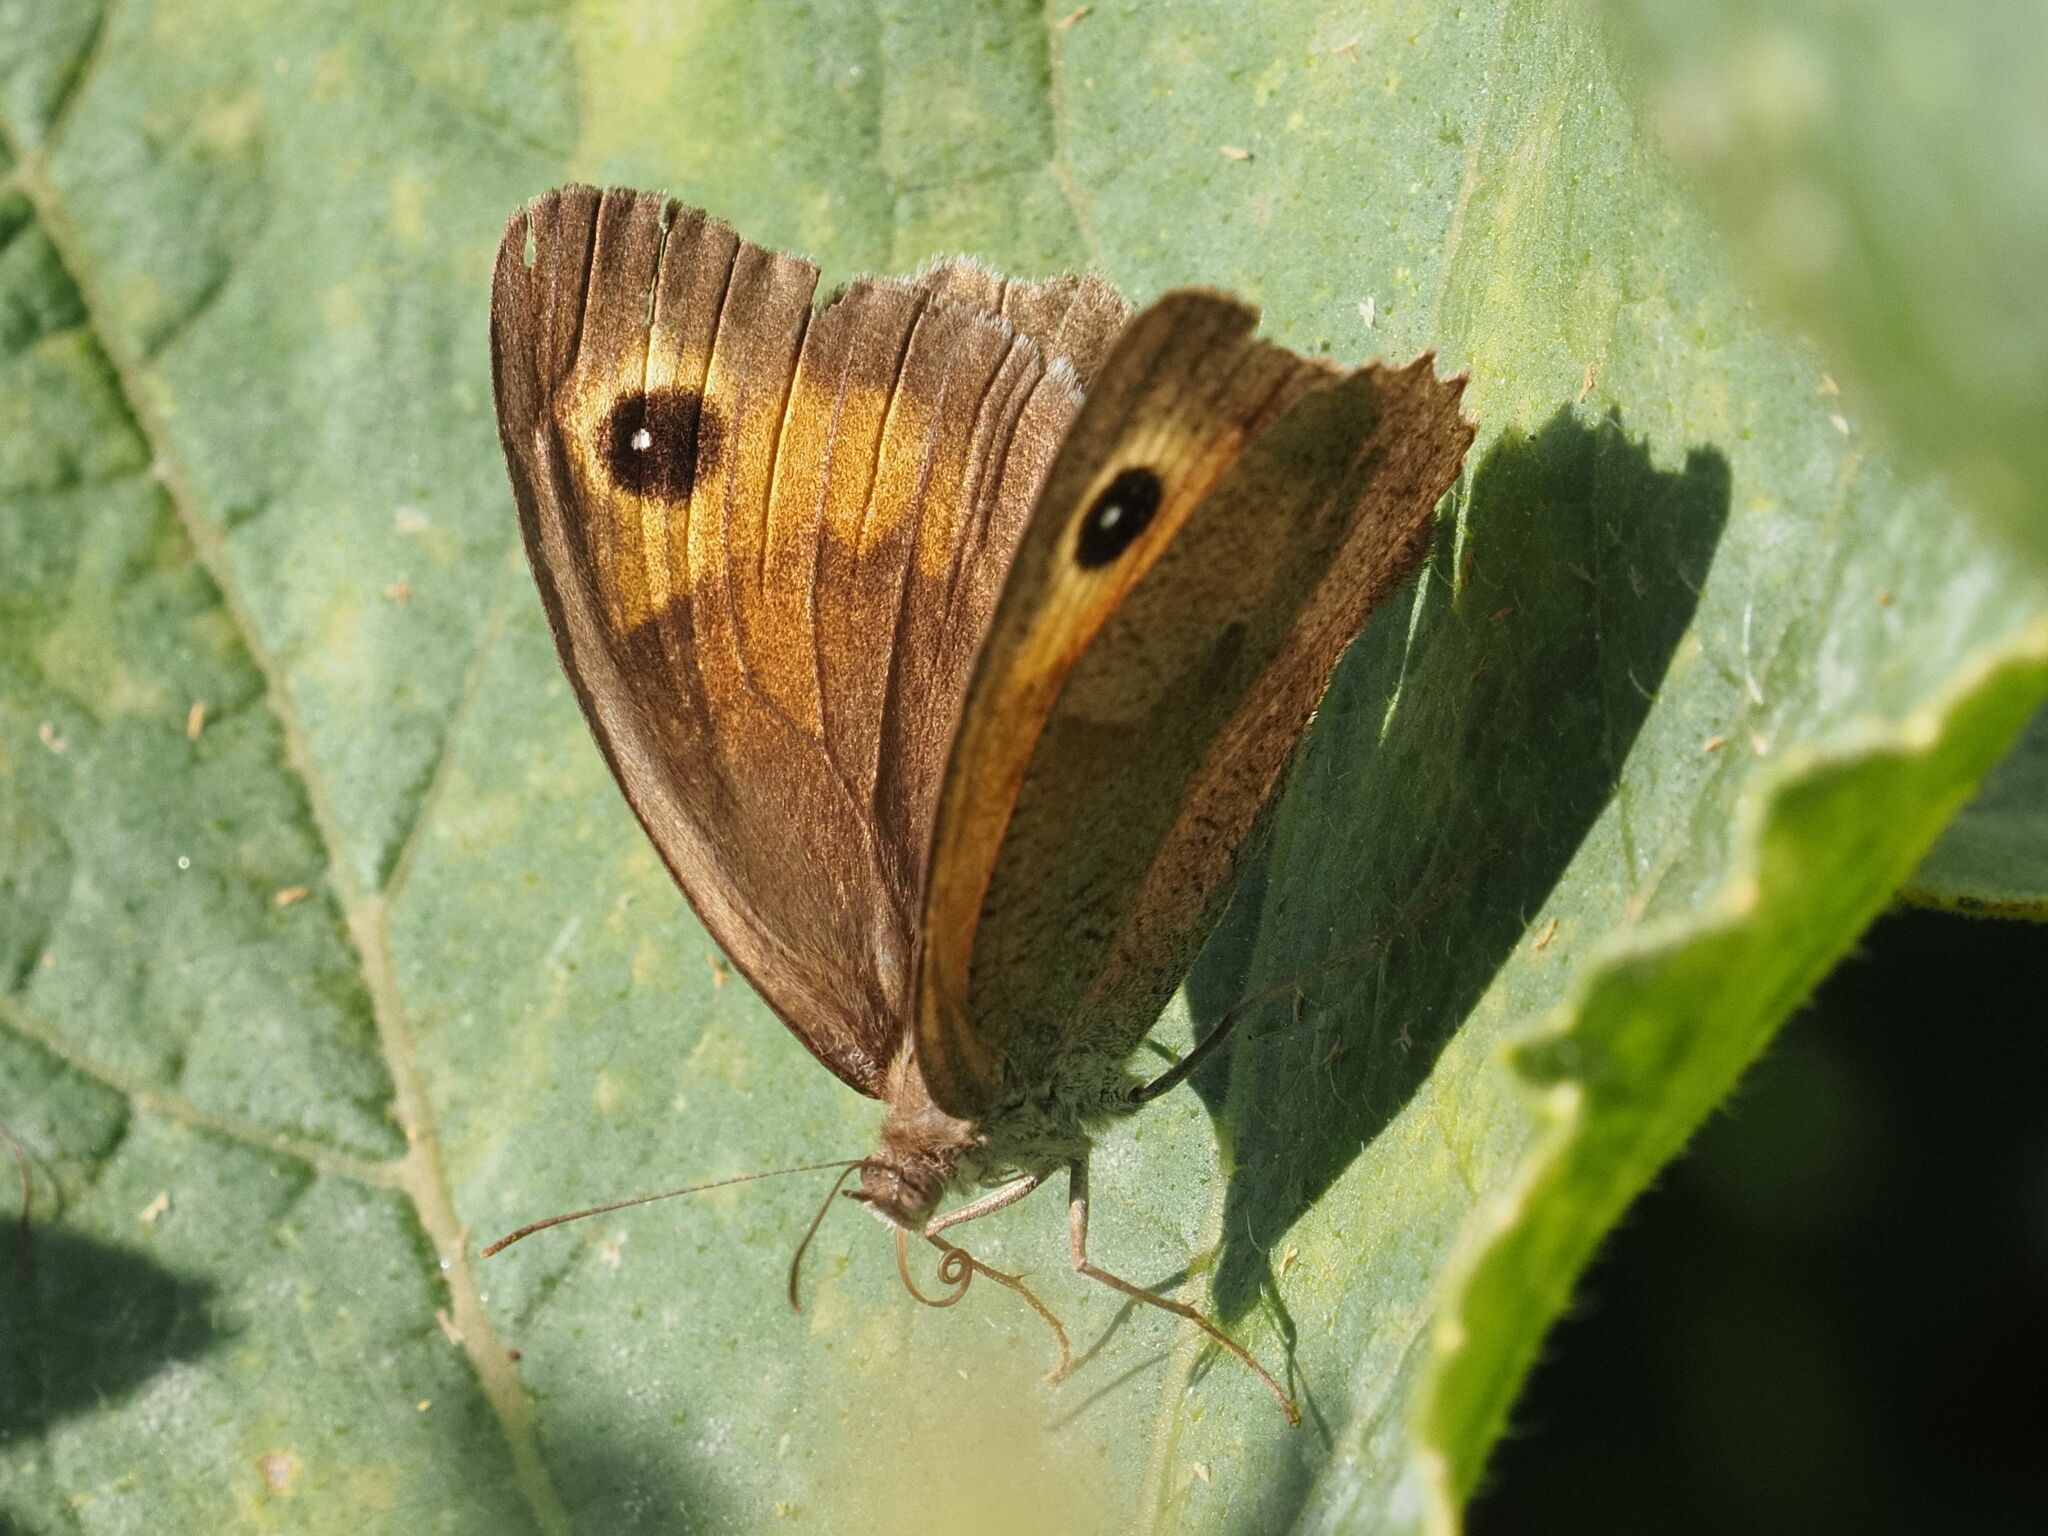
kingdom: Animalia
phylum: Arthropoda
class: Insecta
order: Lepidoptera
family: Nymphalidae
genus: Maniola
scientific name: Maniola jurtina
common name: Meadow brown
